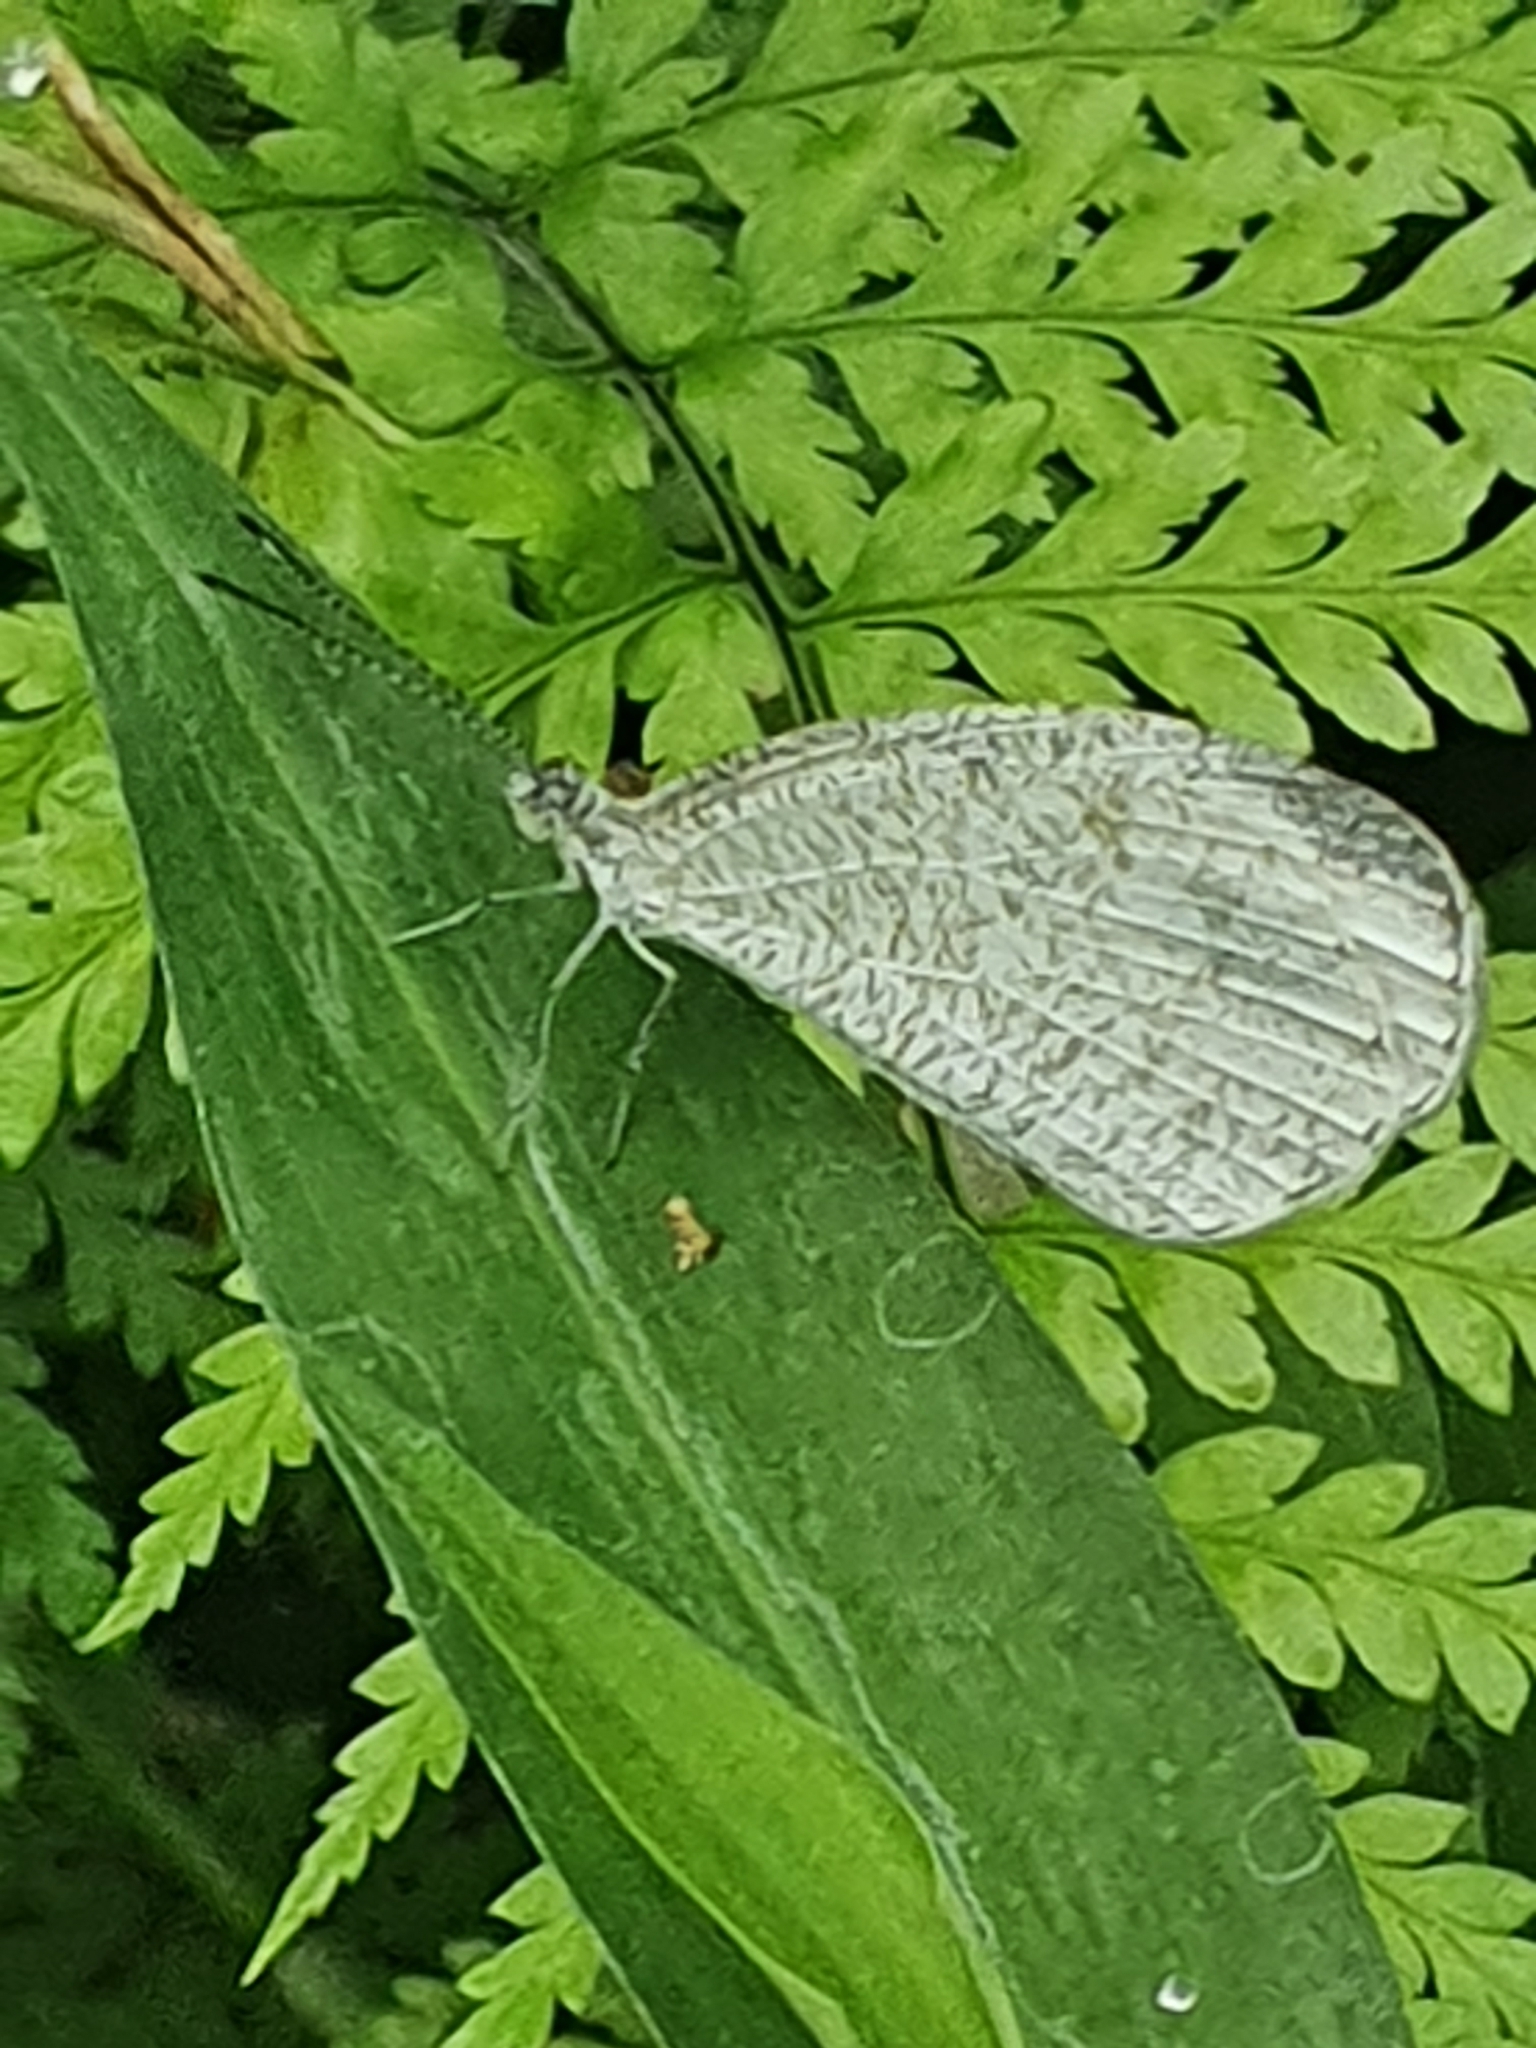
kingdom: Animalia
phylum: Arthropoda
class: Insecta
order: Lepidoptera
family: Pieridae
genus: Leptosia
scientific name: Leptosia nina
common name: Psyche
